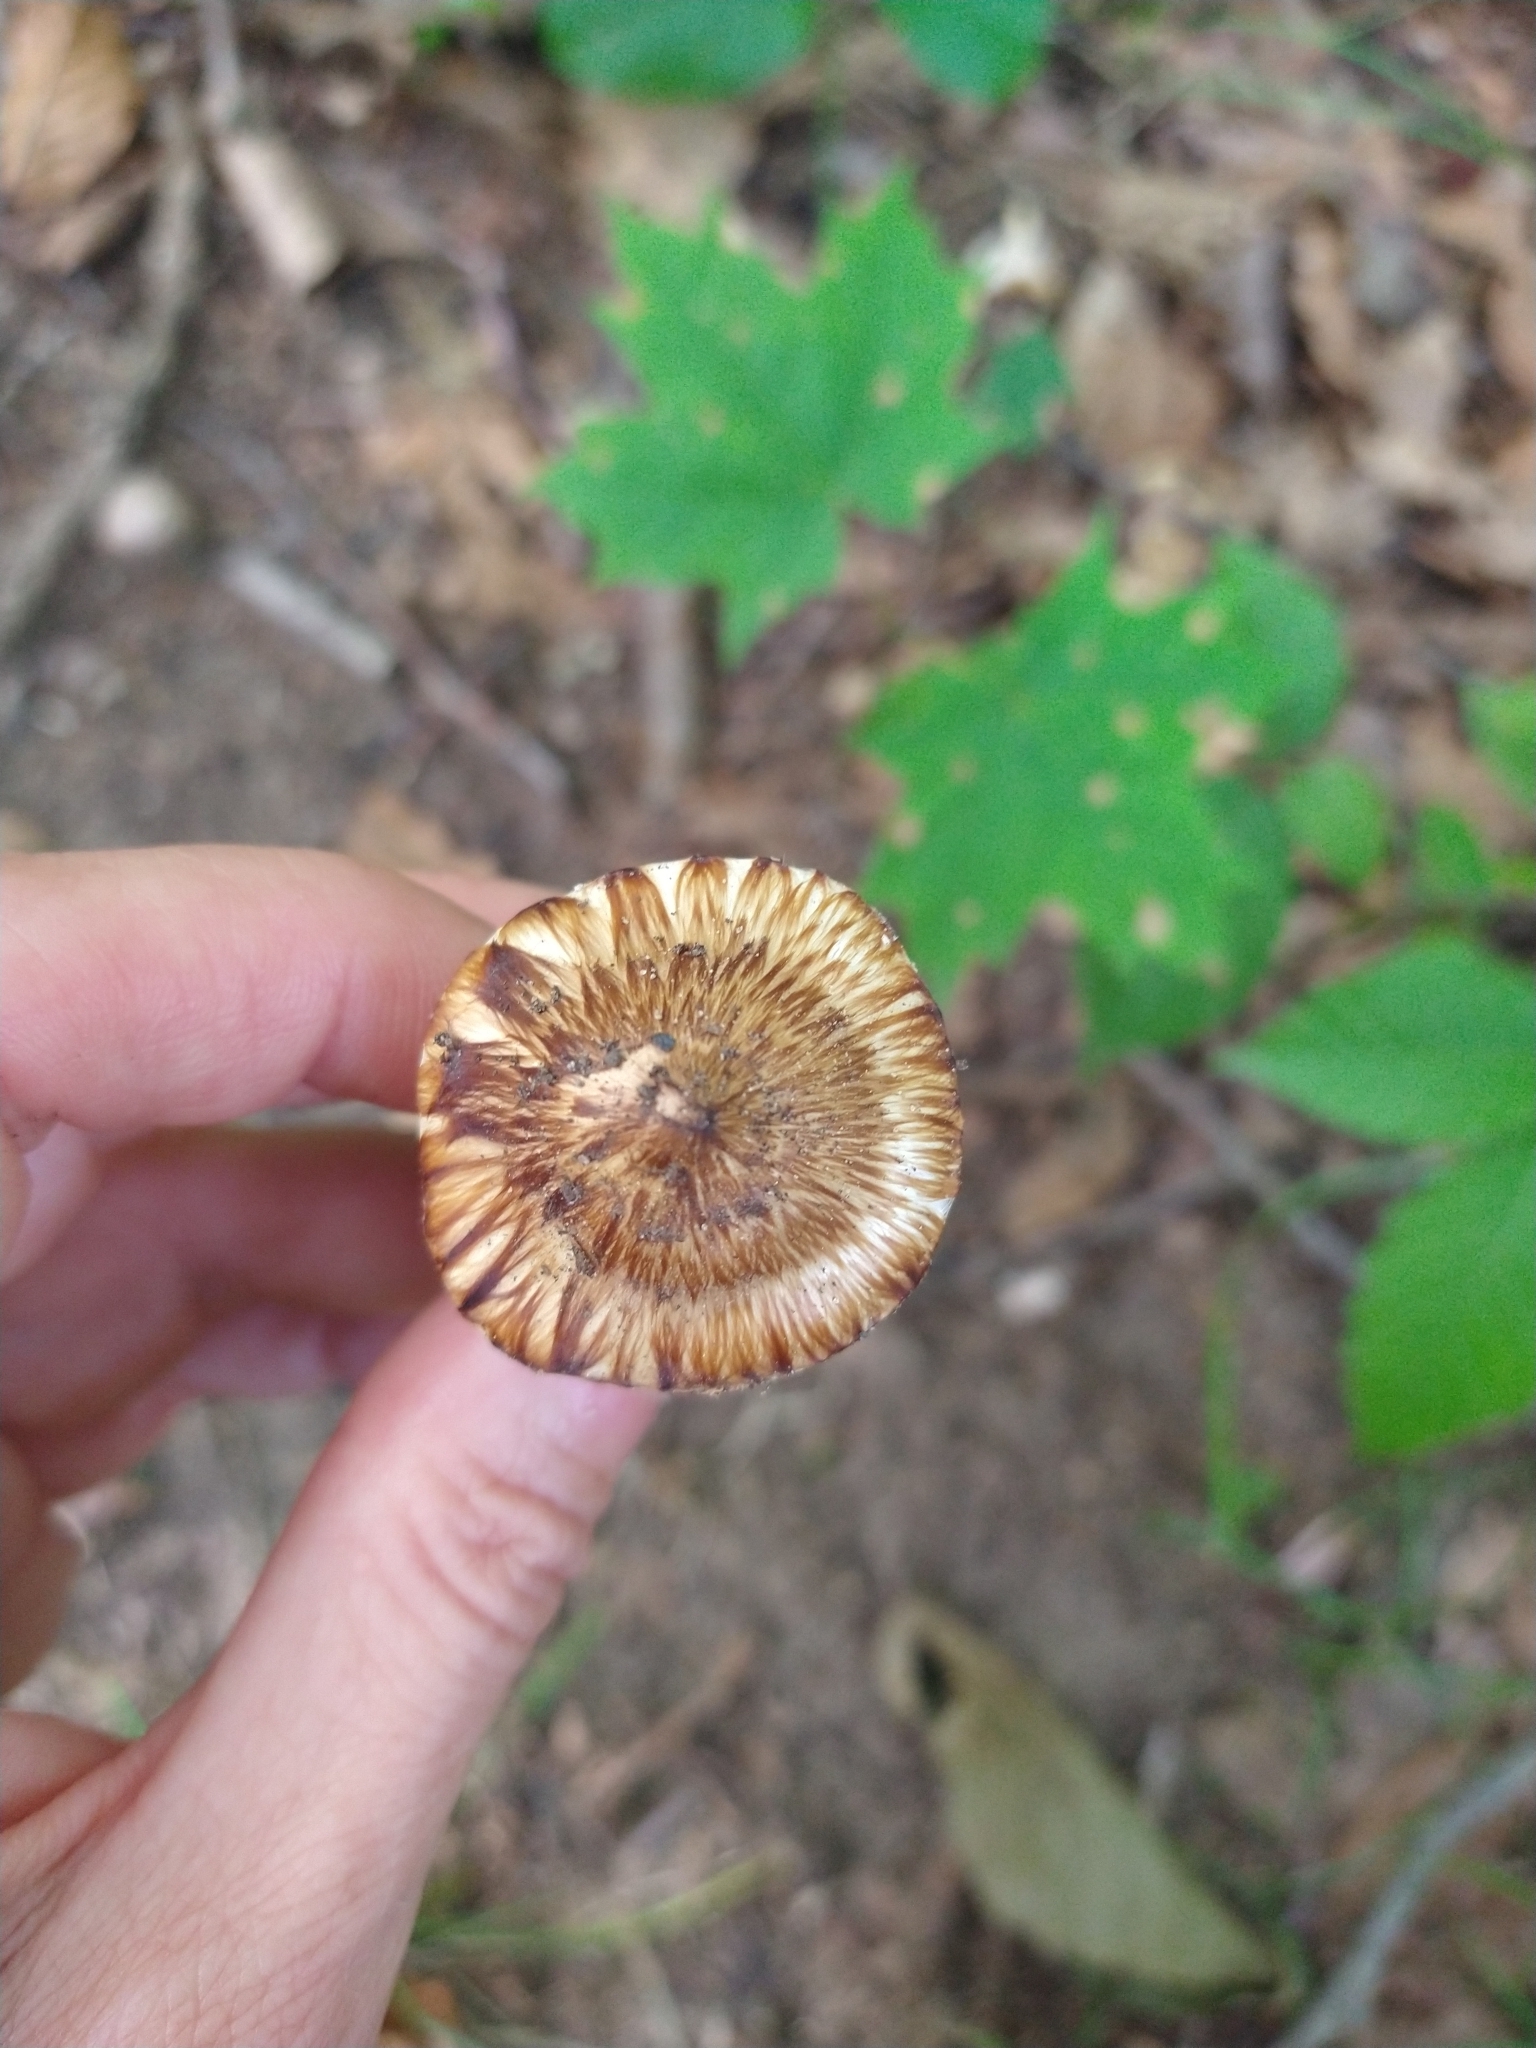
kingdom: Fungi
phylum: Basidiomycota
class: Agaricomycetes
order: Agaricales
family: Tricholomataceae
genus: Squamanita
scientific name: Squamanita umbonata
